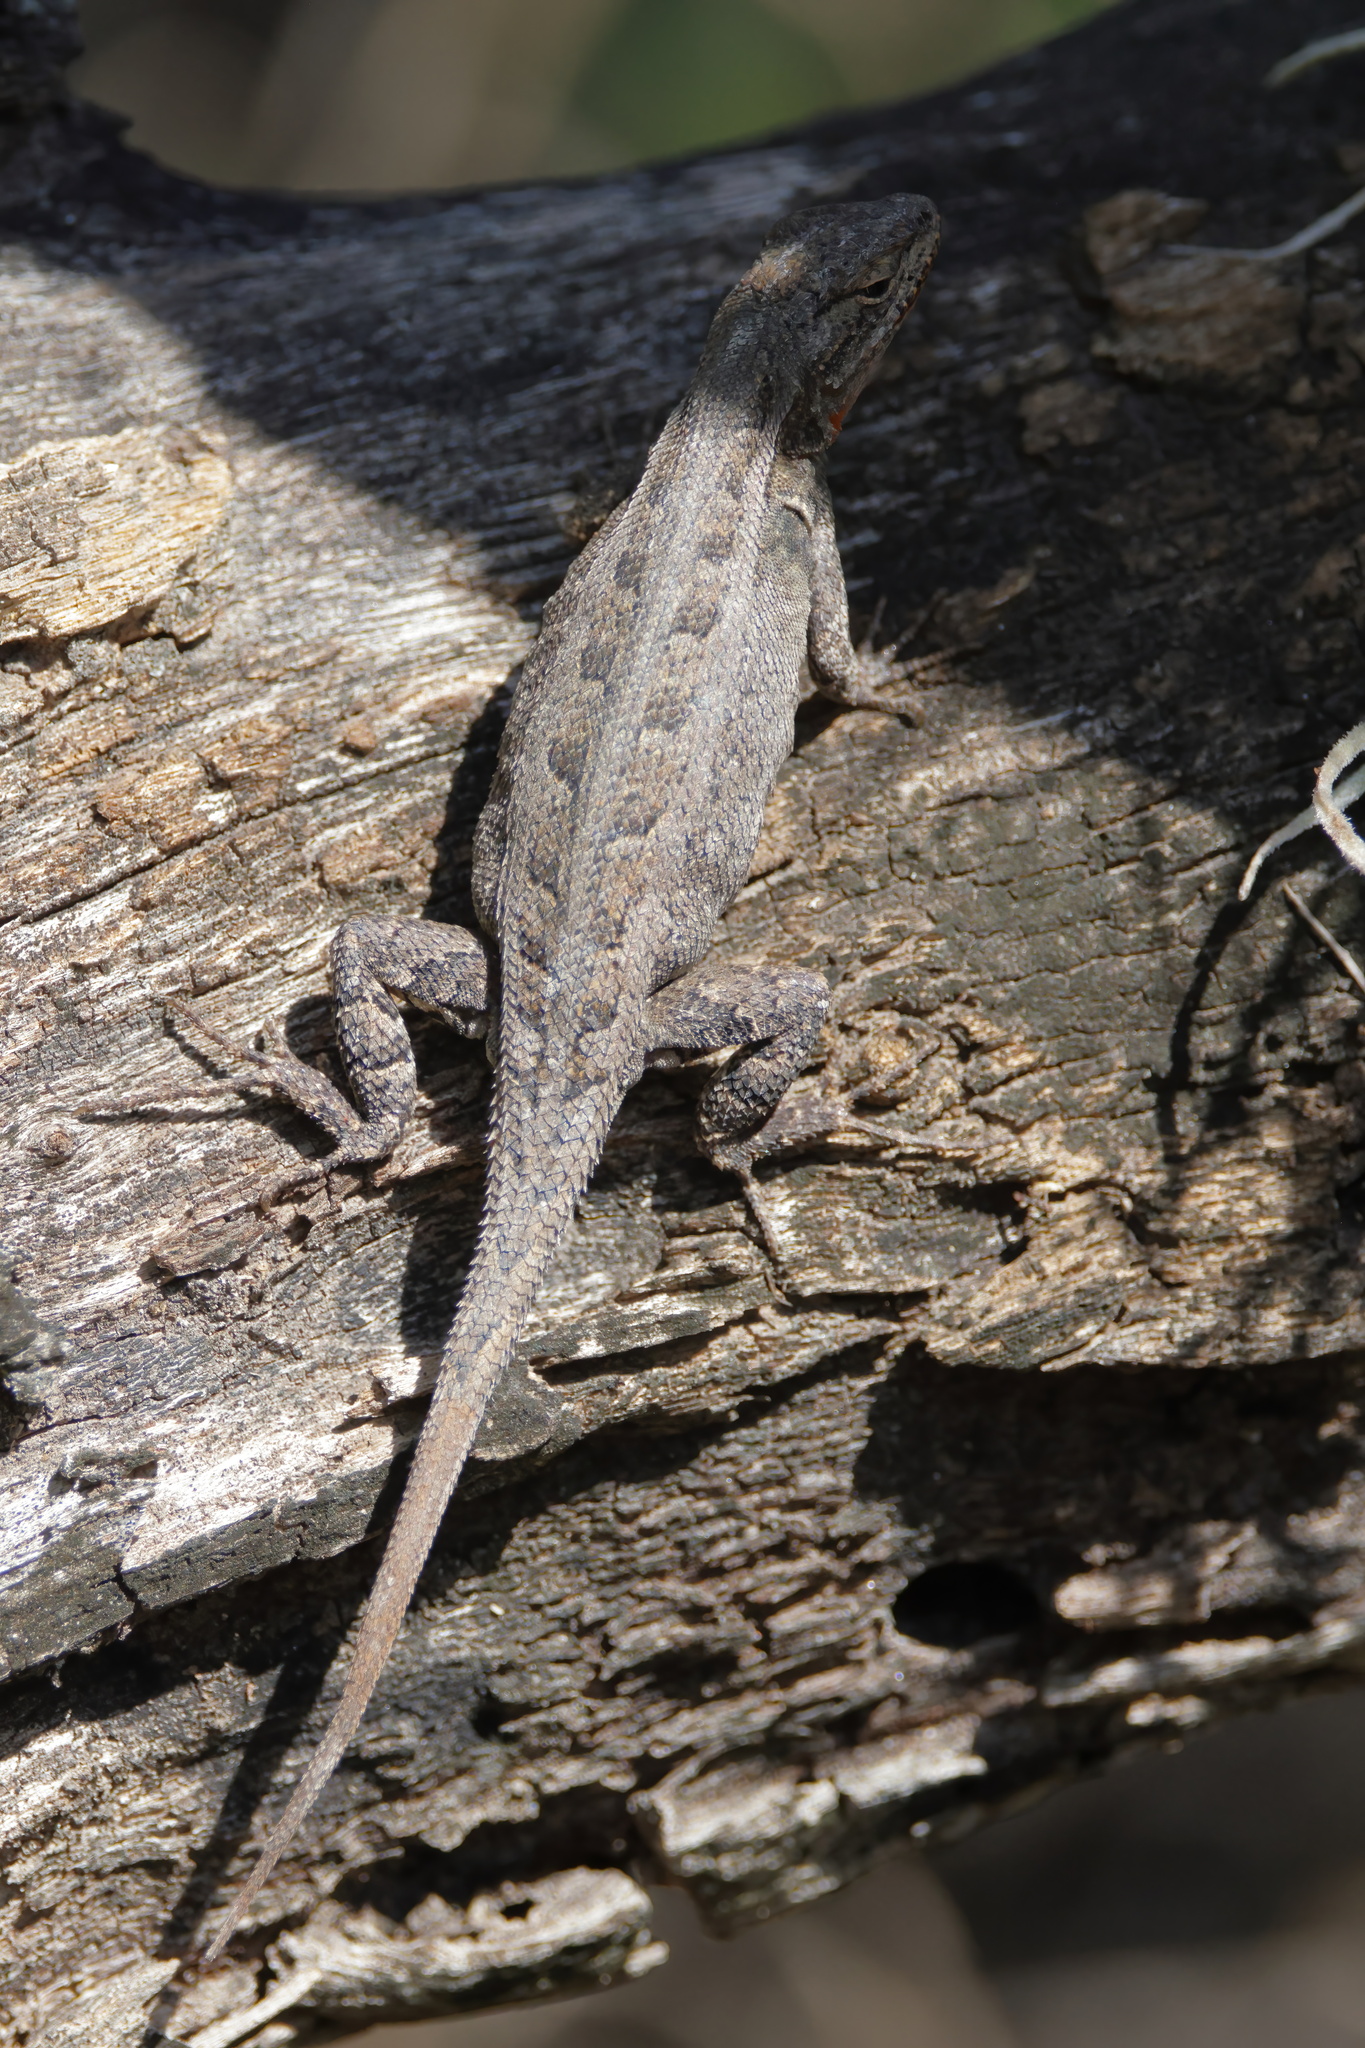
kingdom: Animalia
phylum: Chordata
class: Squamata
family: Phrynosomatidae
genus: Sceloporus
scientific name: Sceloporus variabilis
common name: Rosebelly lizard
